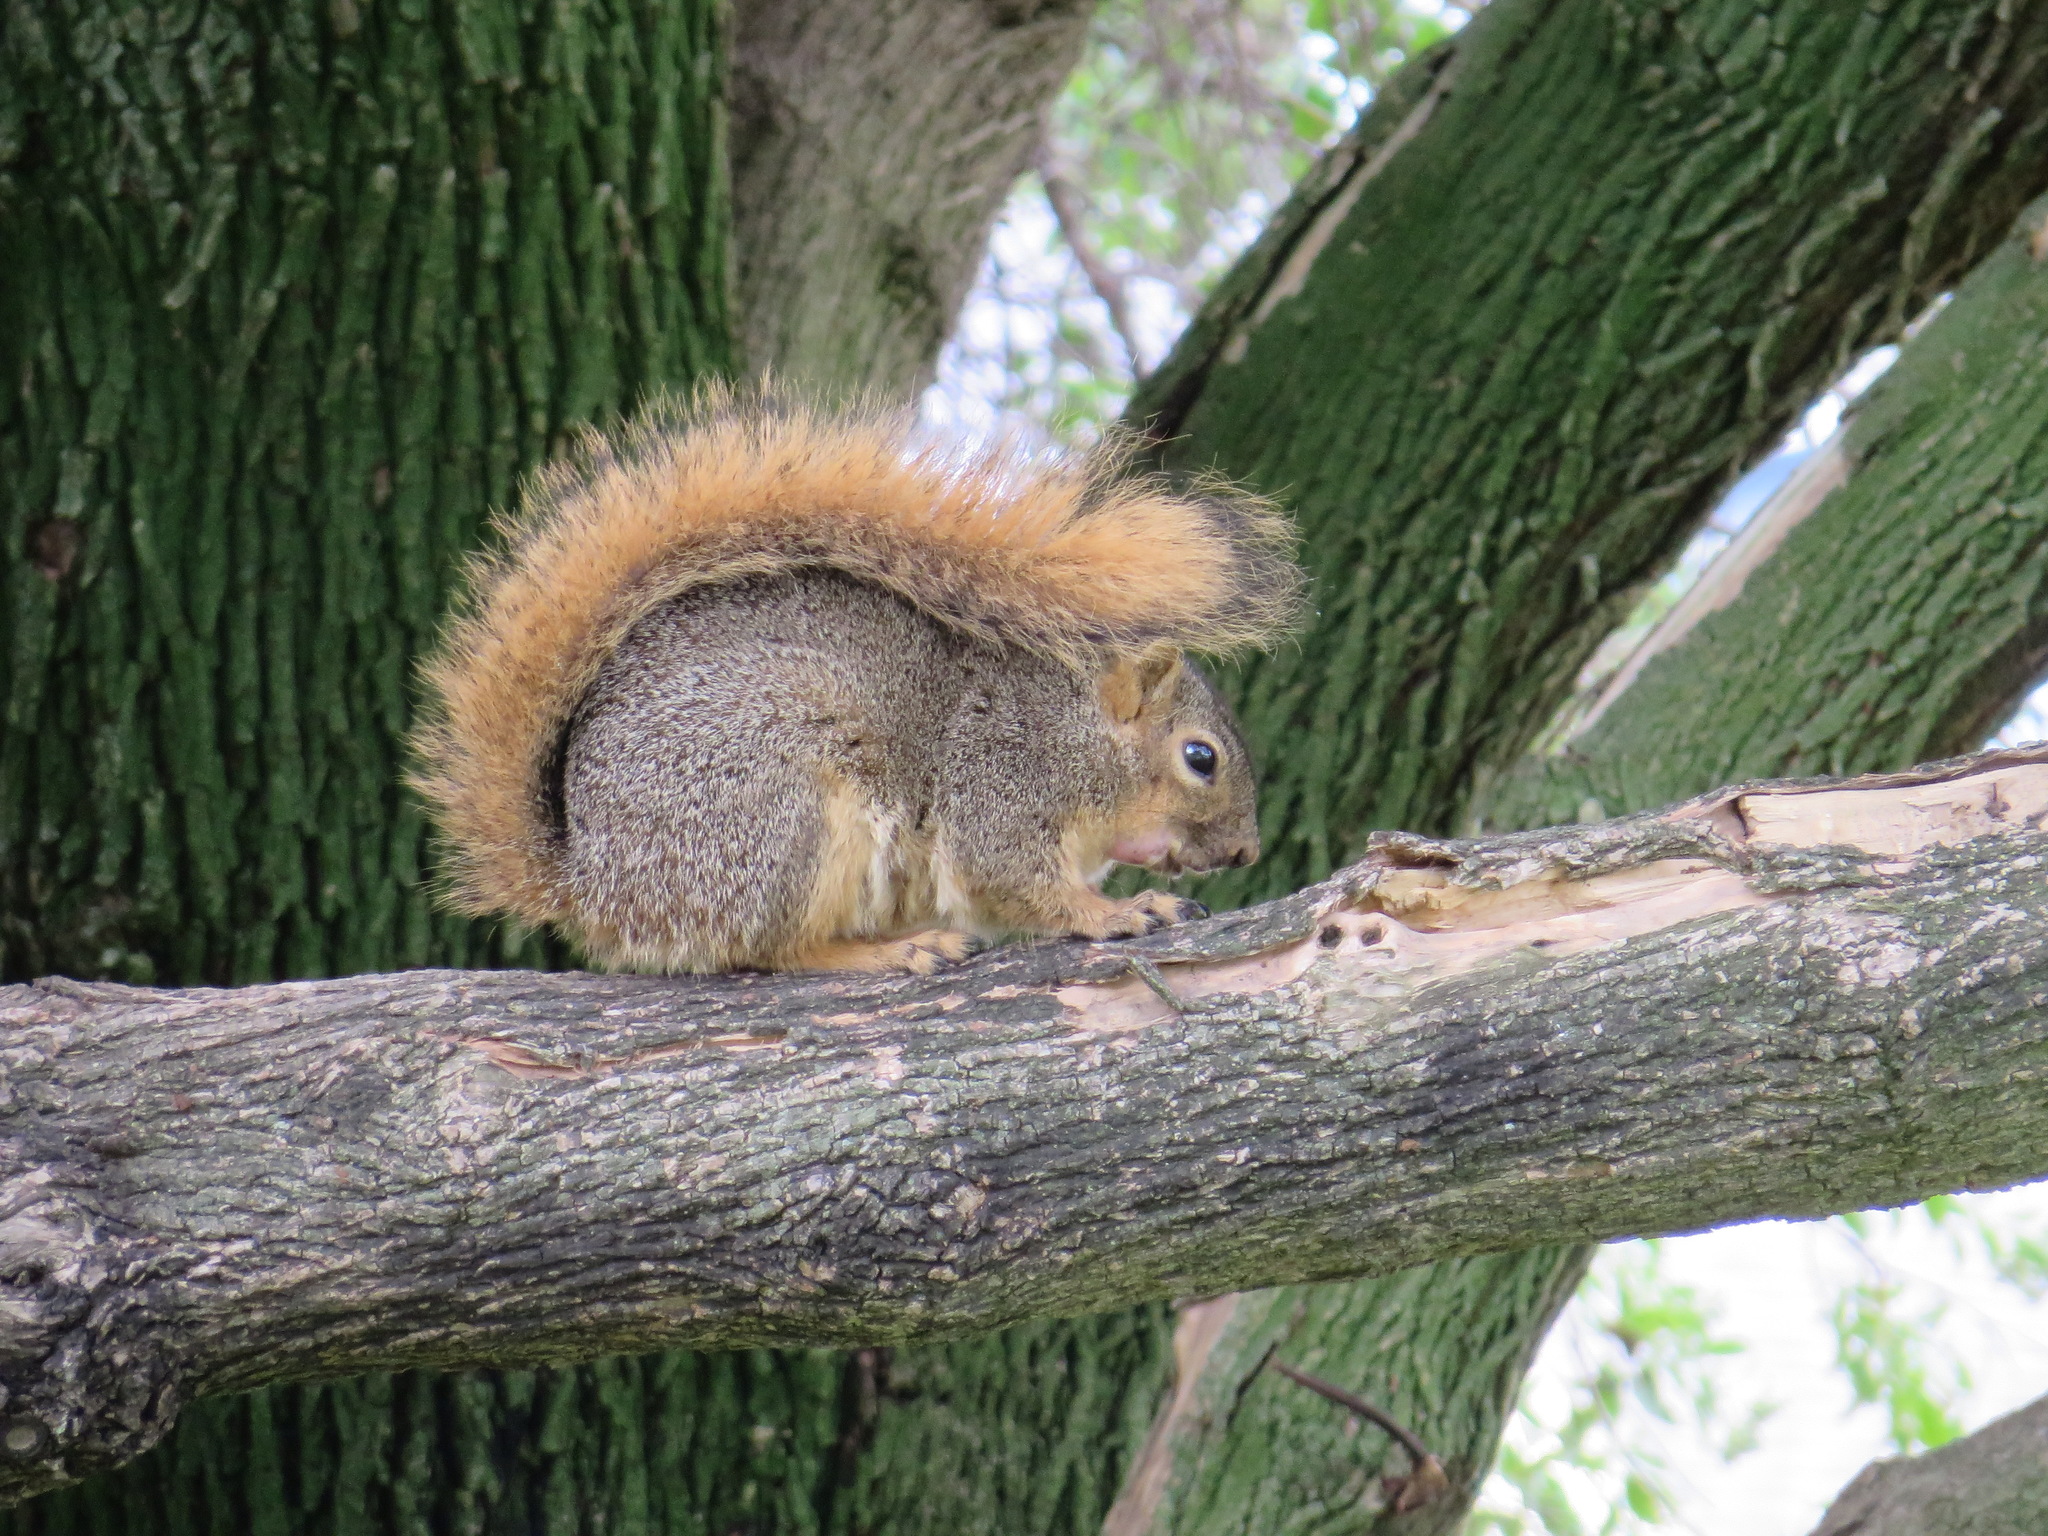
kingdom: Animalia
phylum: Chordata
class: Mammalia
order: Rodentia
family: Sciuridae
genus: Sciurus
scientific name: Sciurus niger
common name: Fox squirrel
